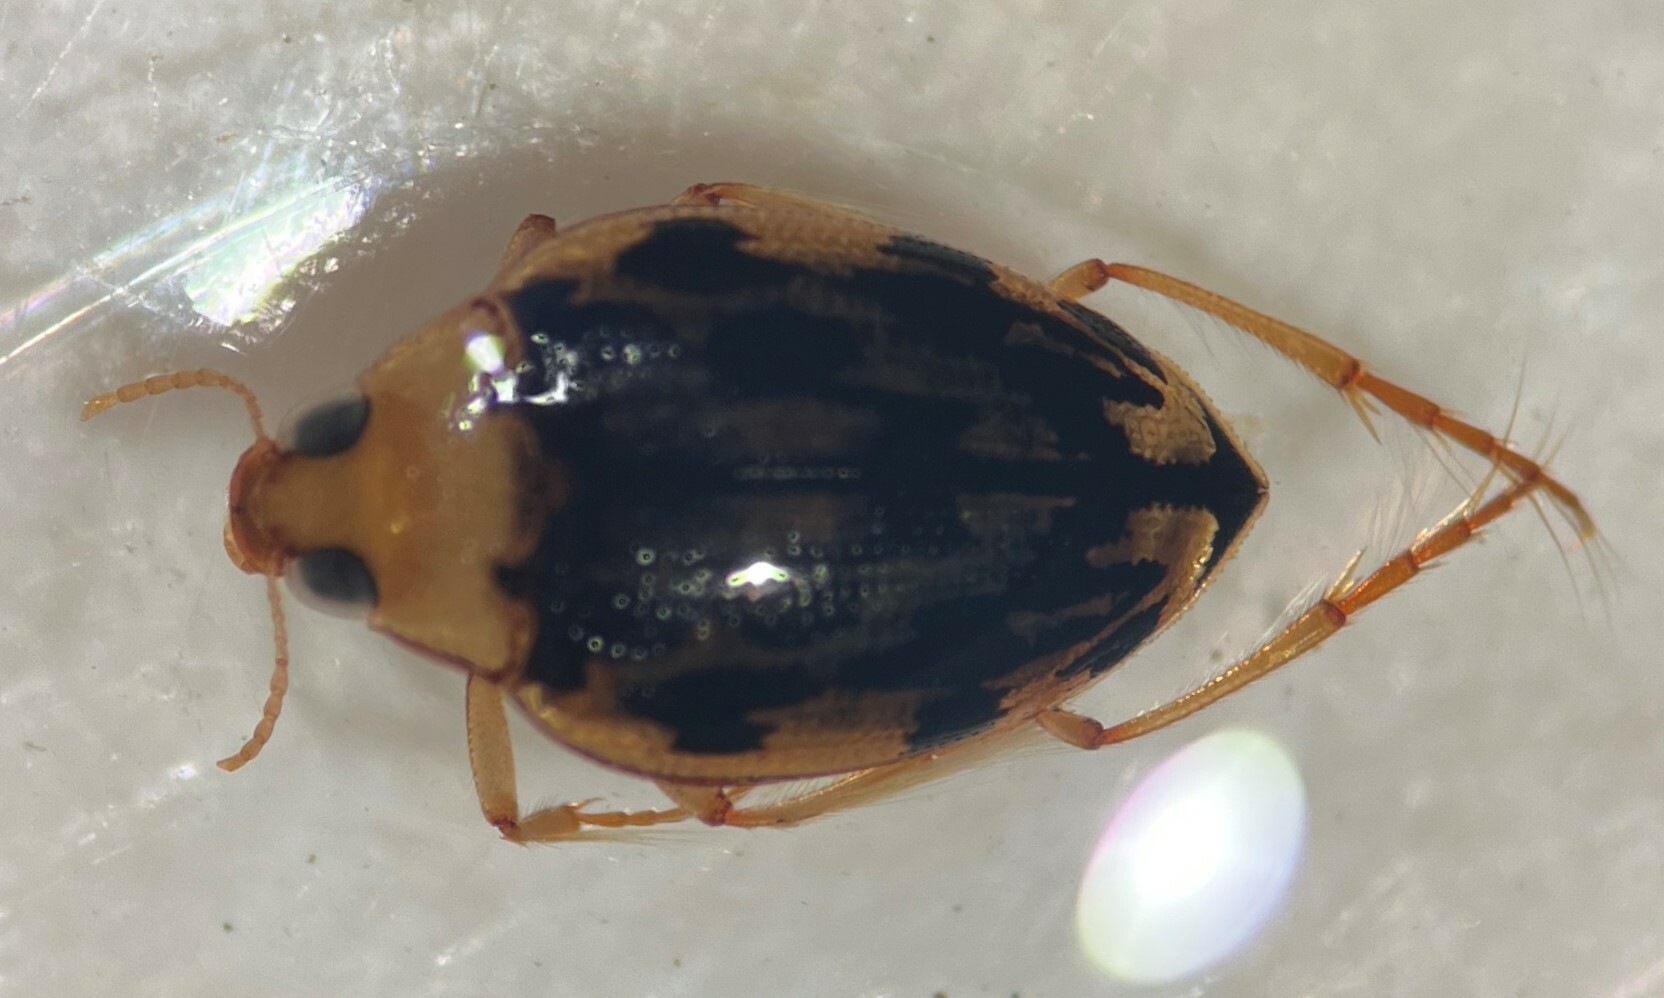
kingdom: Animalia
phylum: Arthropoda
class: Insecta
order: Coleoptera
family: Haliplidae
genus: Haliplus
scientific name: Haliplus connexus
